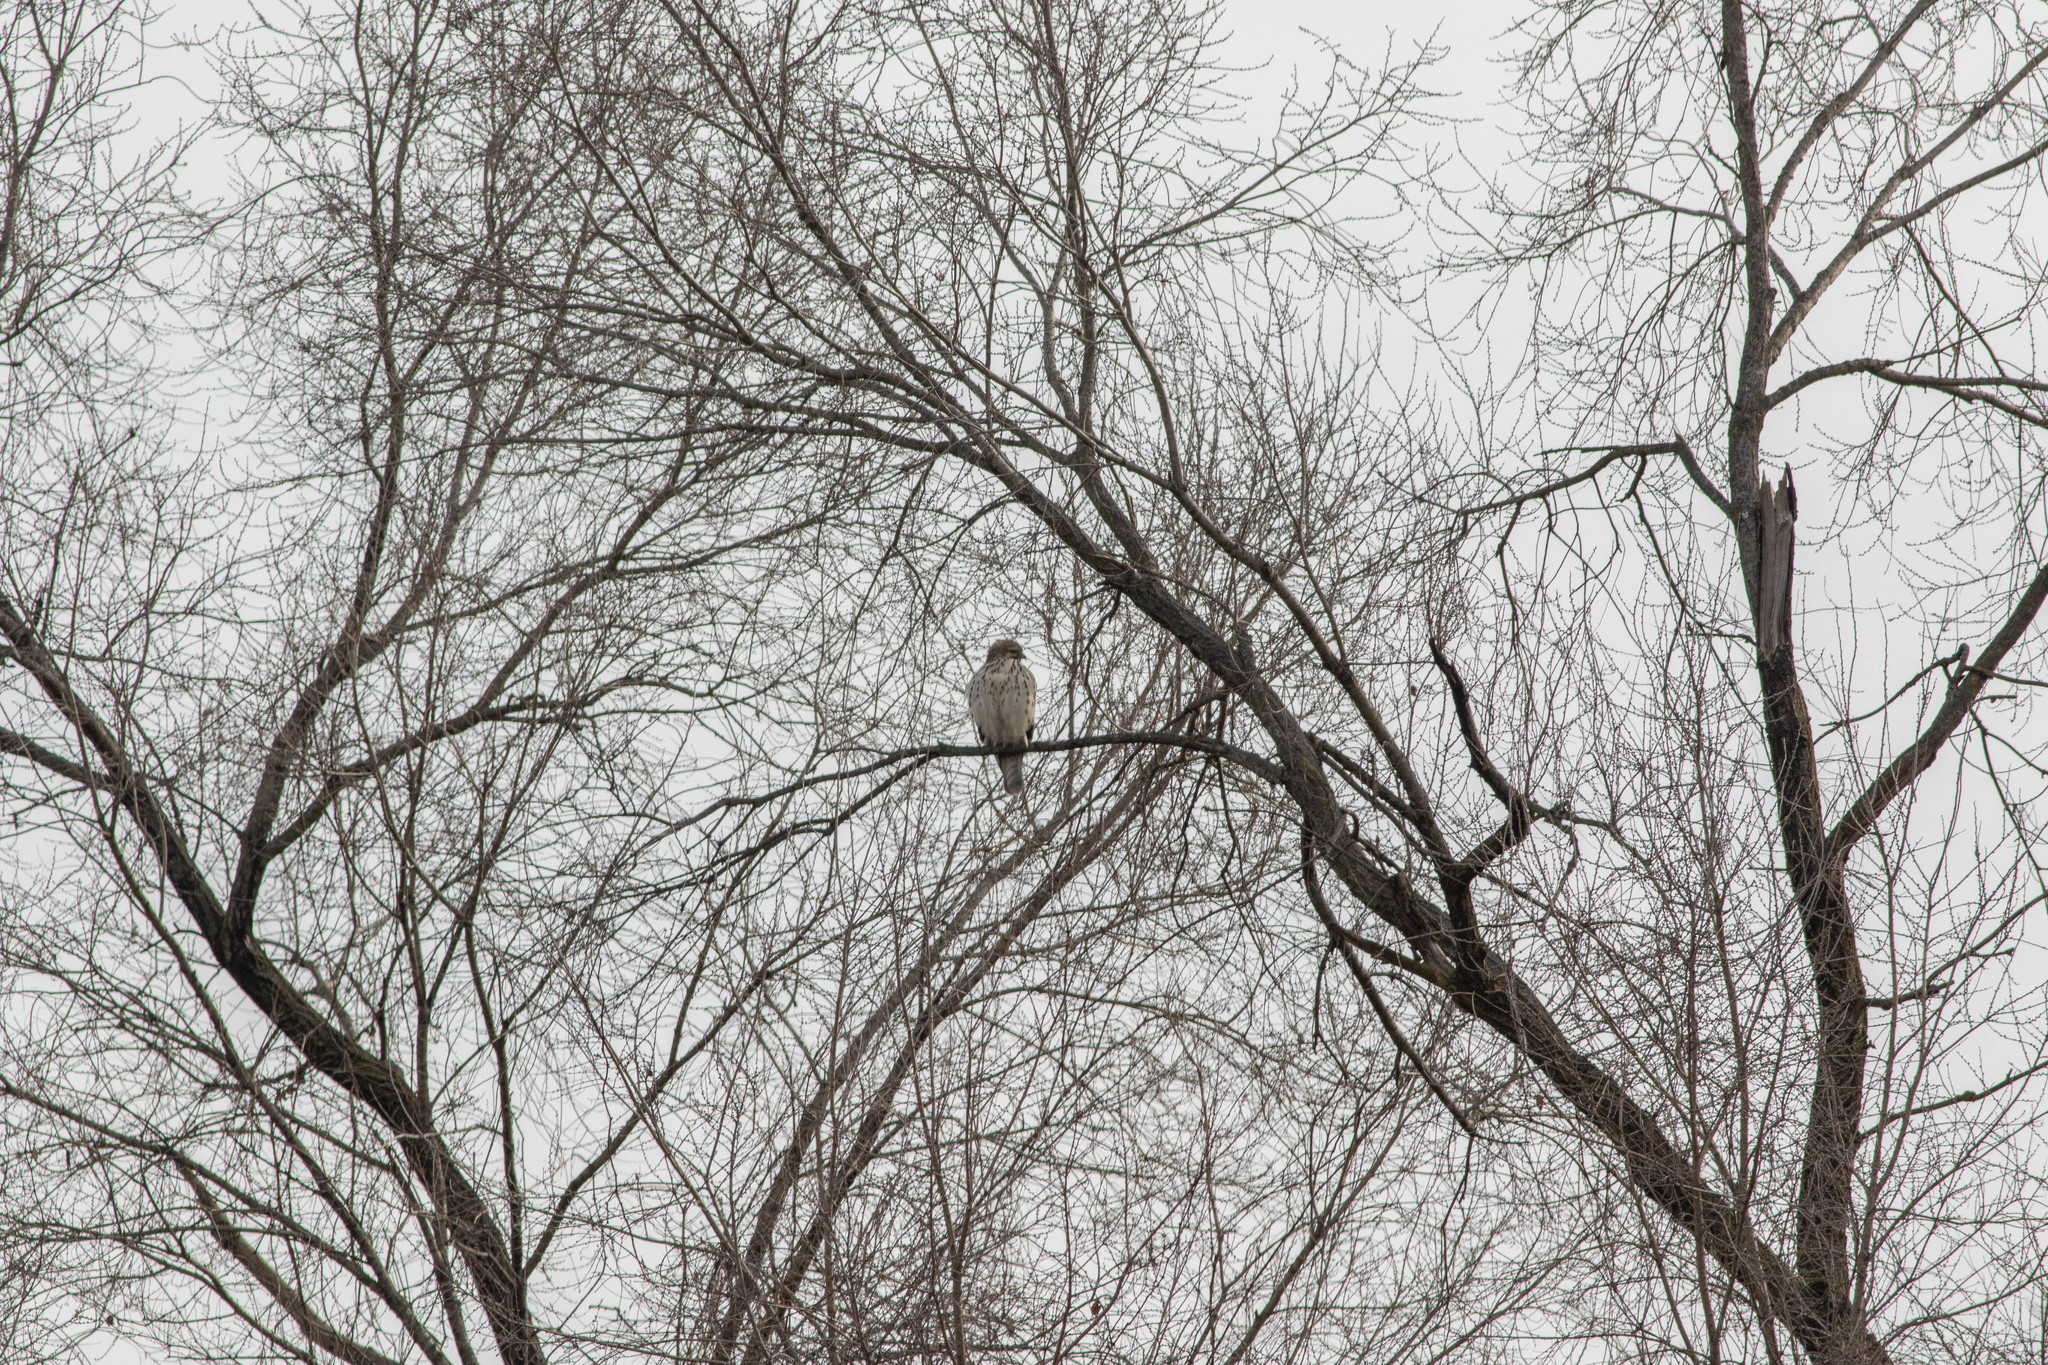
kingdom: Animalia
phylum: Chordata
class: Aves
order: Accipitriformes
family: Accipitridae
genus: Buteo
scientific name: Buteo lineatus
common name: Red-shouldered hawk
